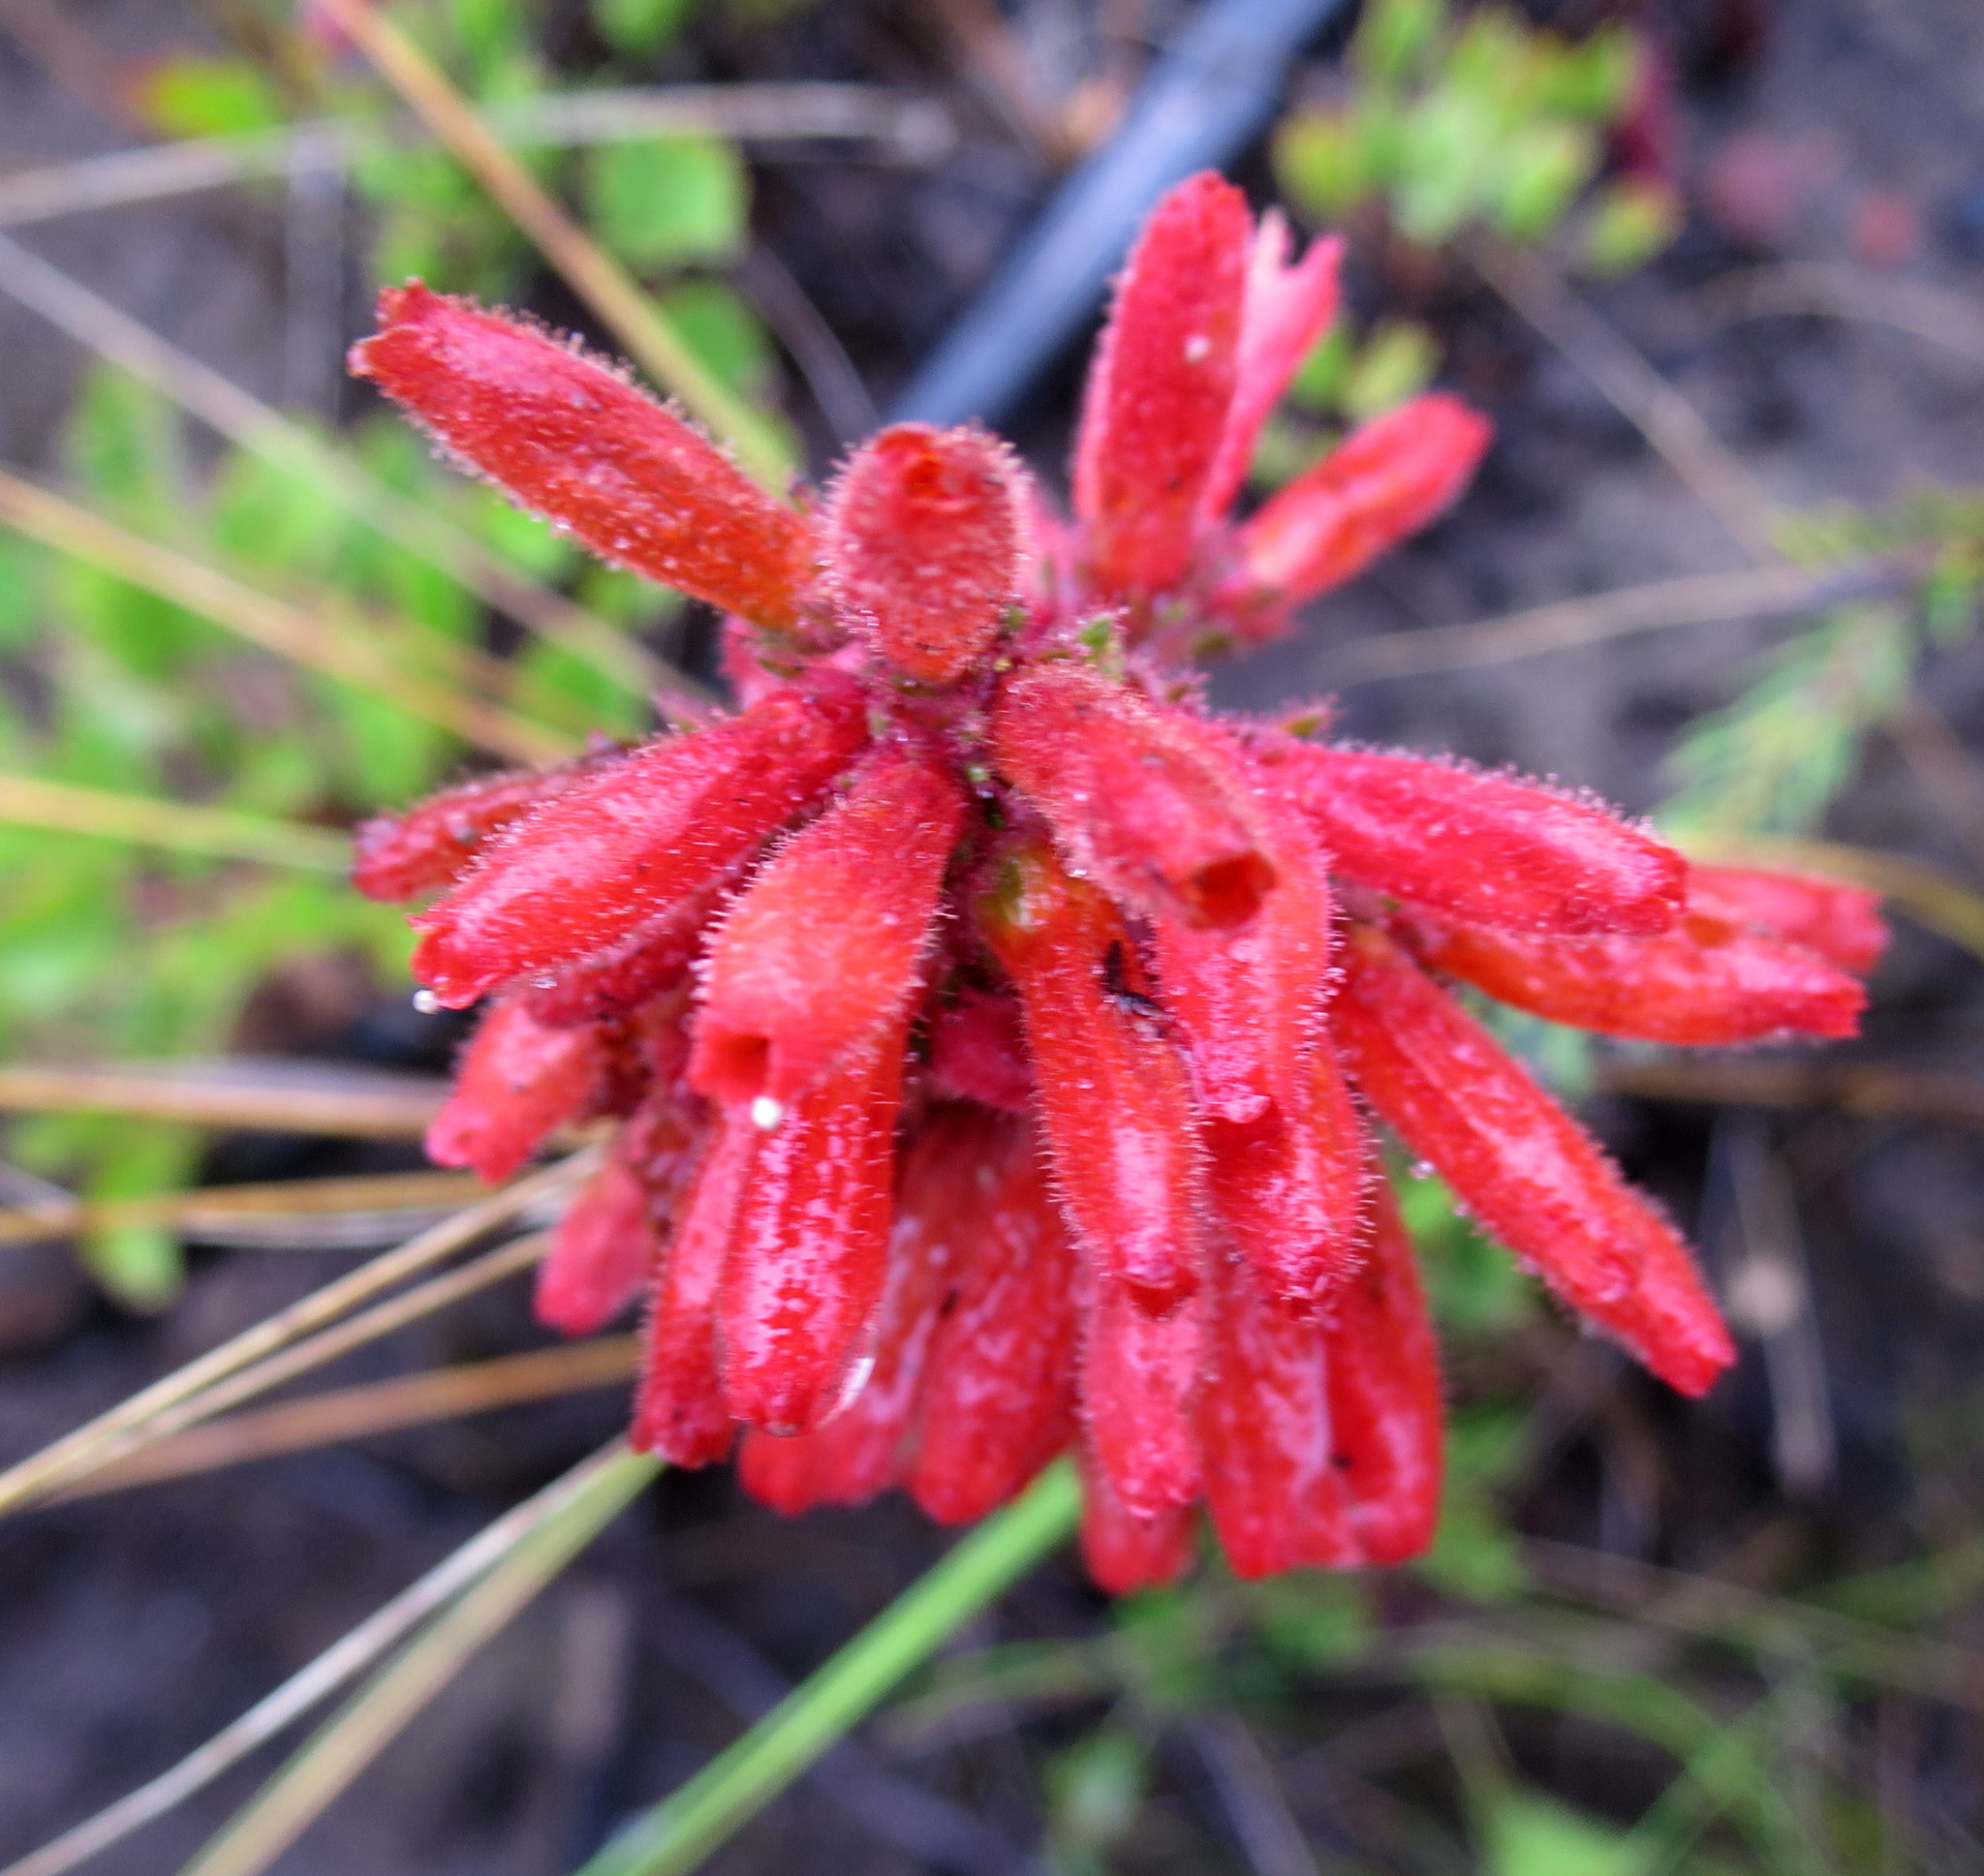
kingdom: Plantae
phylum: Tracheophyta
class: Magnoliopsida
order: Ericales
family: Ericaceae
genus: Erica
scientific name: Erica cerinthoides
